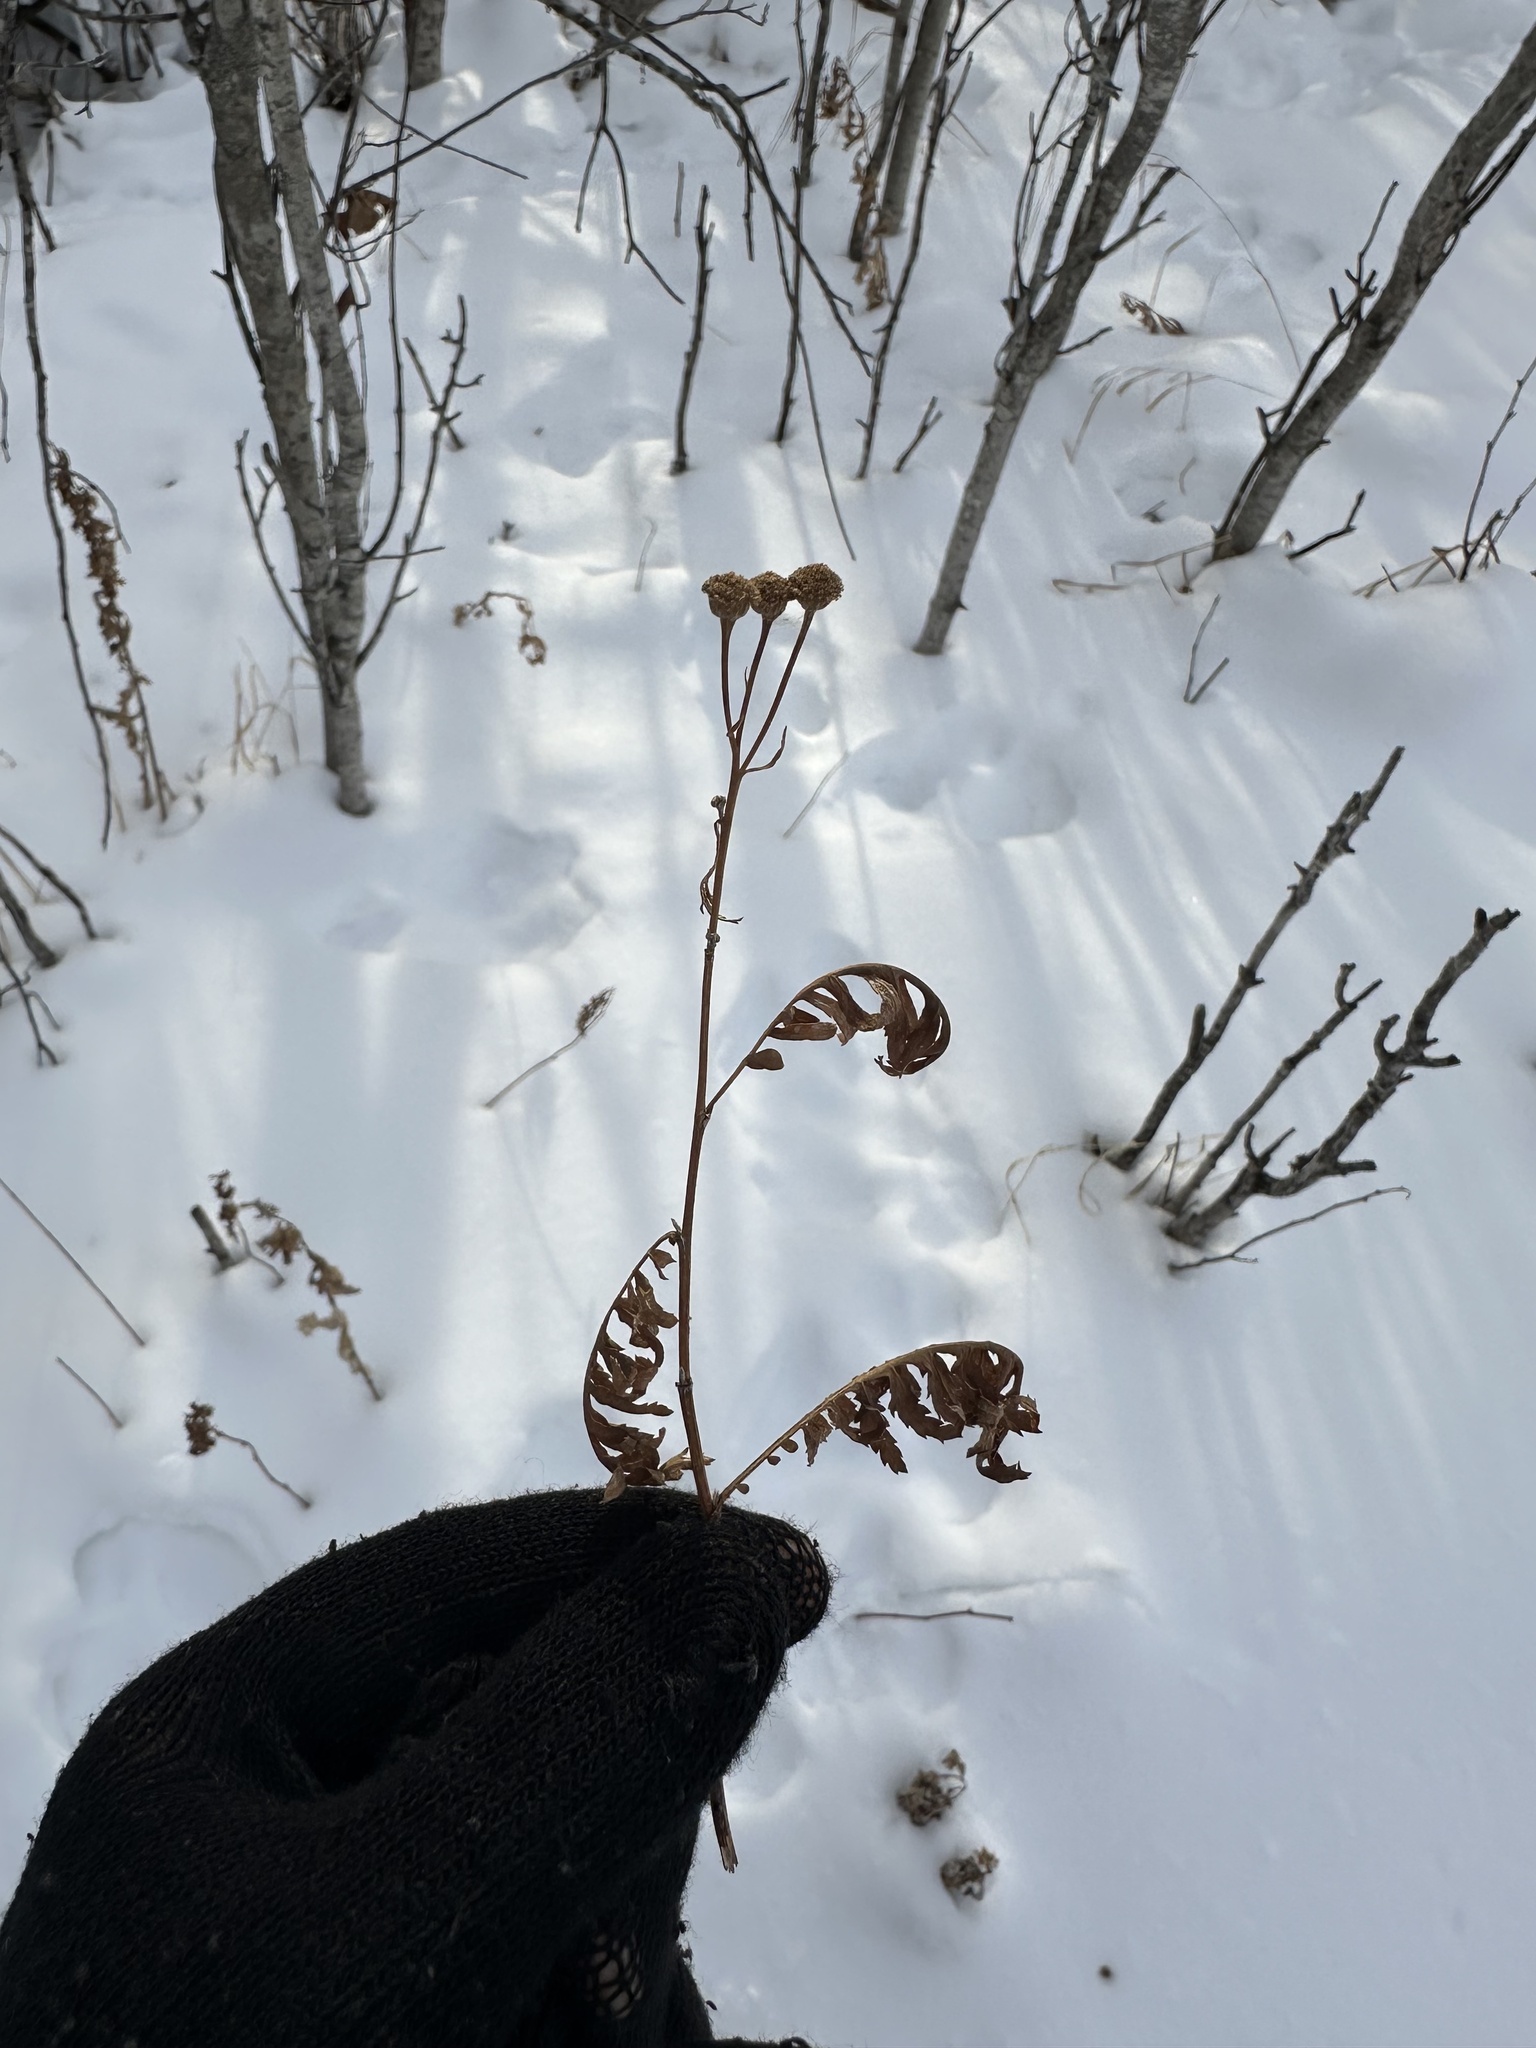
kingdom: Plantae
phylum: Tracheophyta
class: Magnoliopsida
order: Asterales
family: Asteraceae
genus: Tanacetum
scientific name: Tanacetum vulgare
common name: Common tansy
